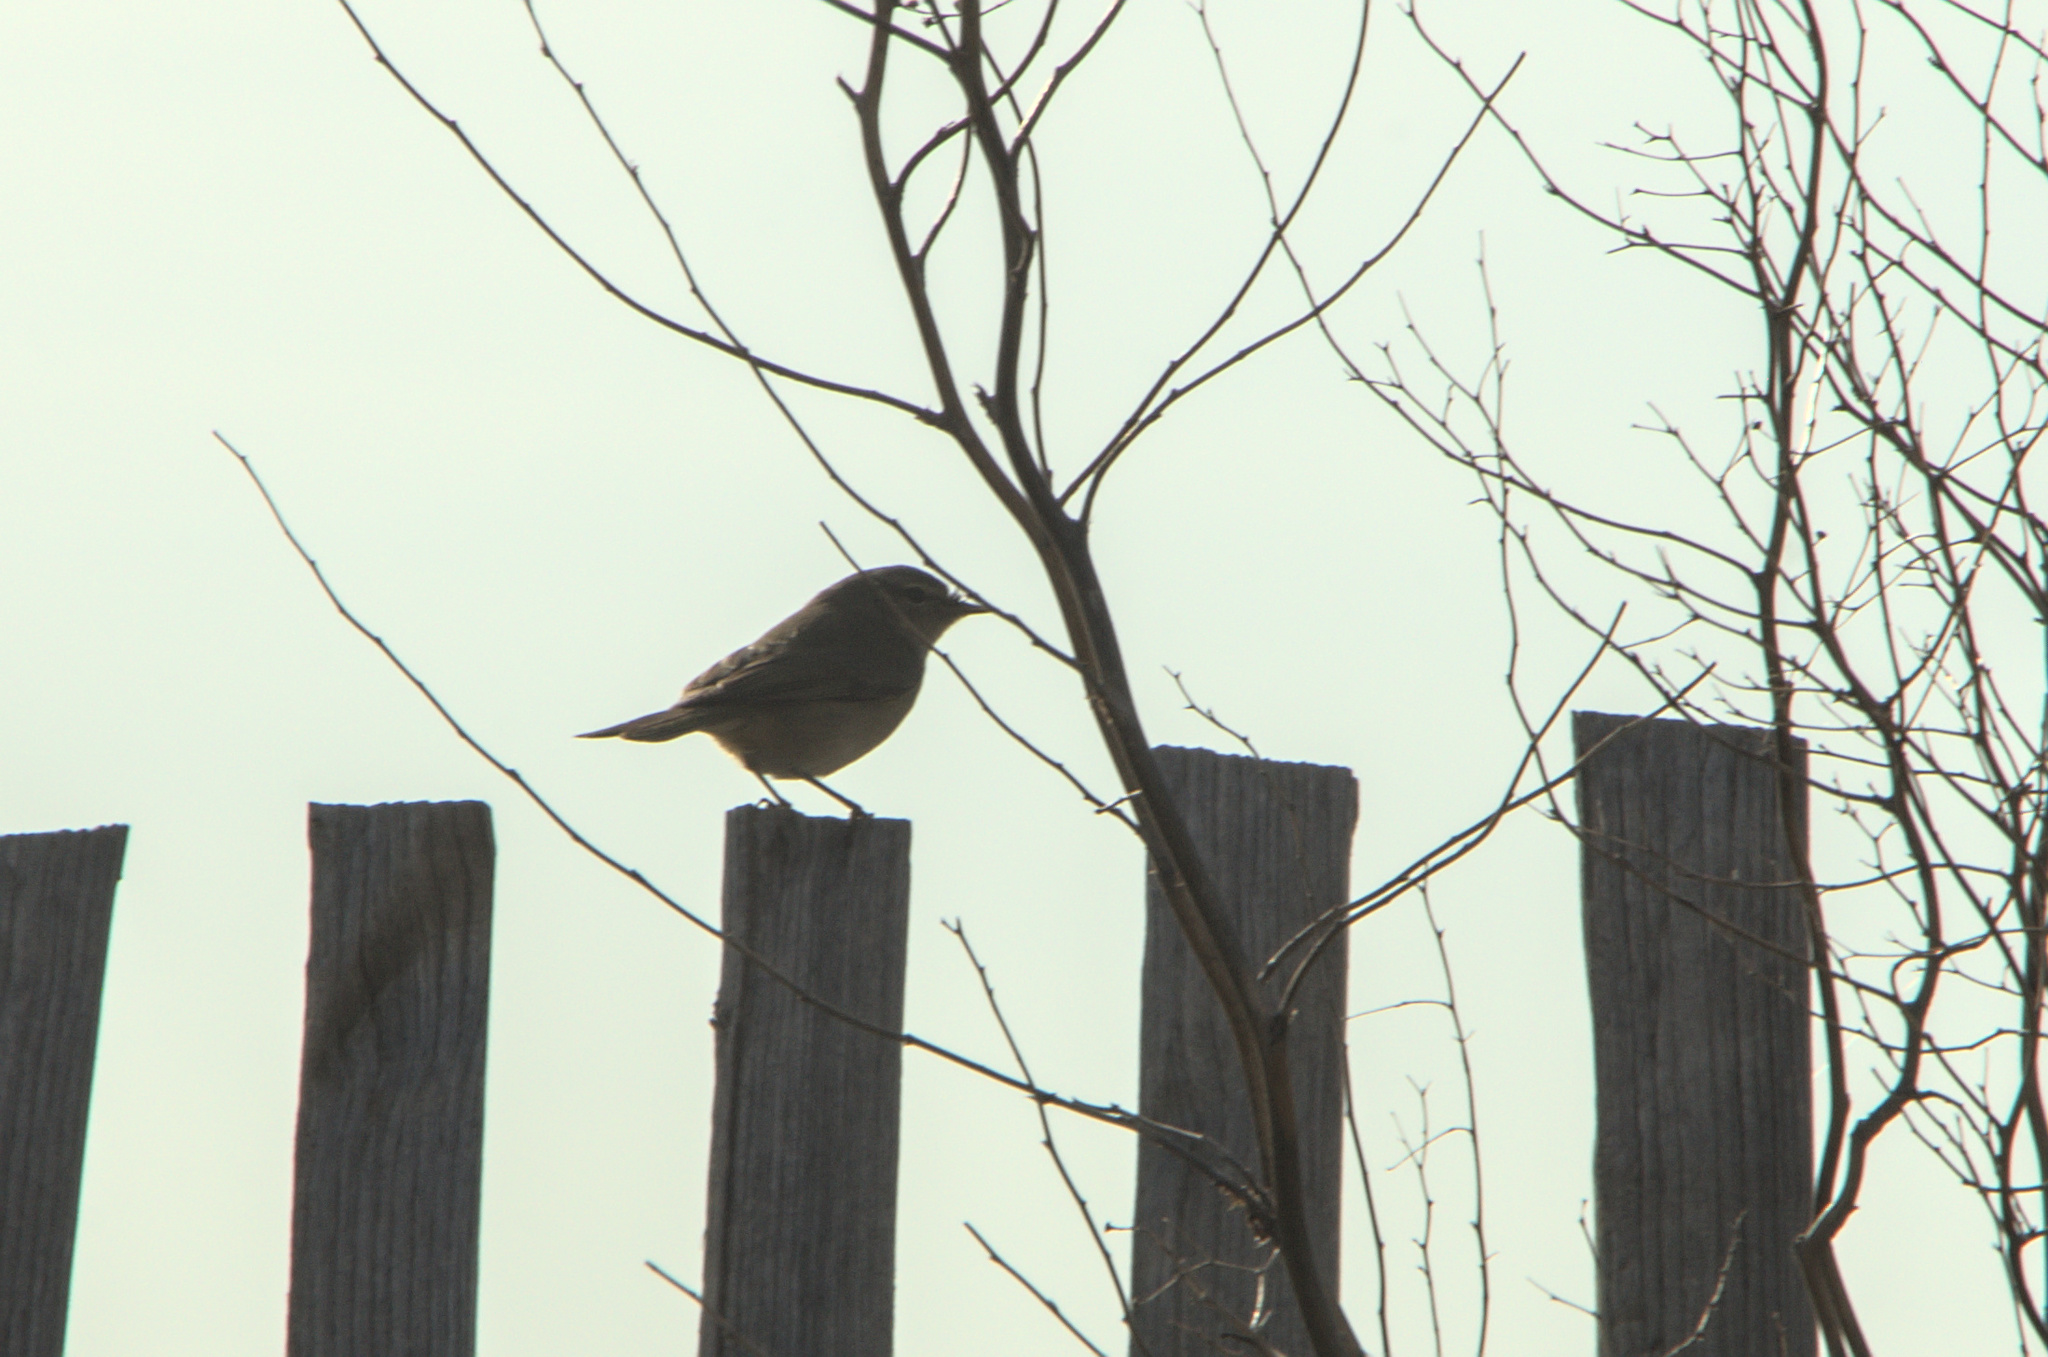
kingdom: Animalia
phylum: Chordata
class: Aves
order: Passeriformes
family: Phylloscopidae
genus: Phylloscopus
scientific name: Phylloscopus collybita
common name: Common chiffchaff
